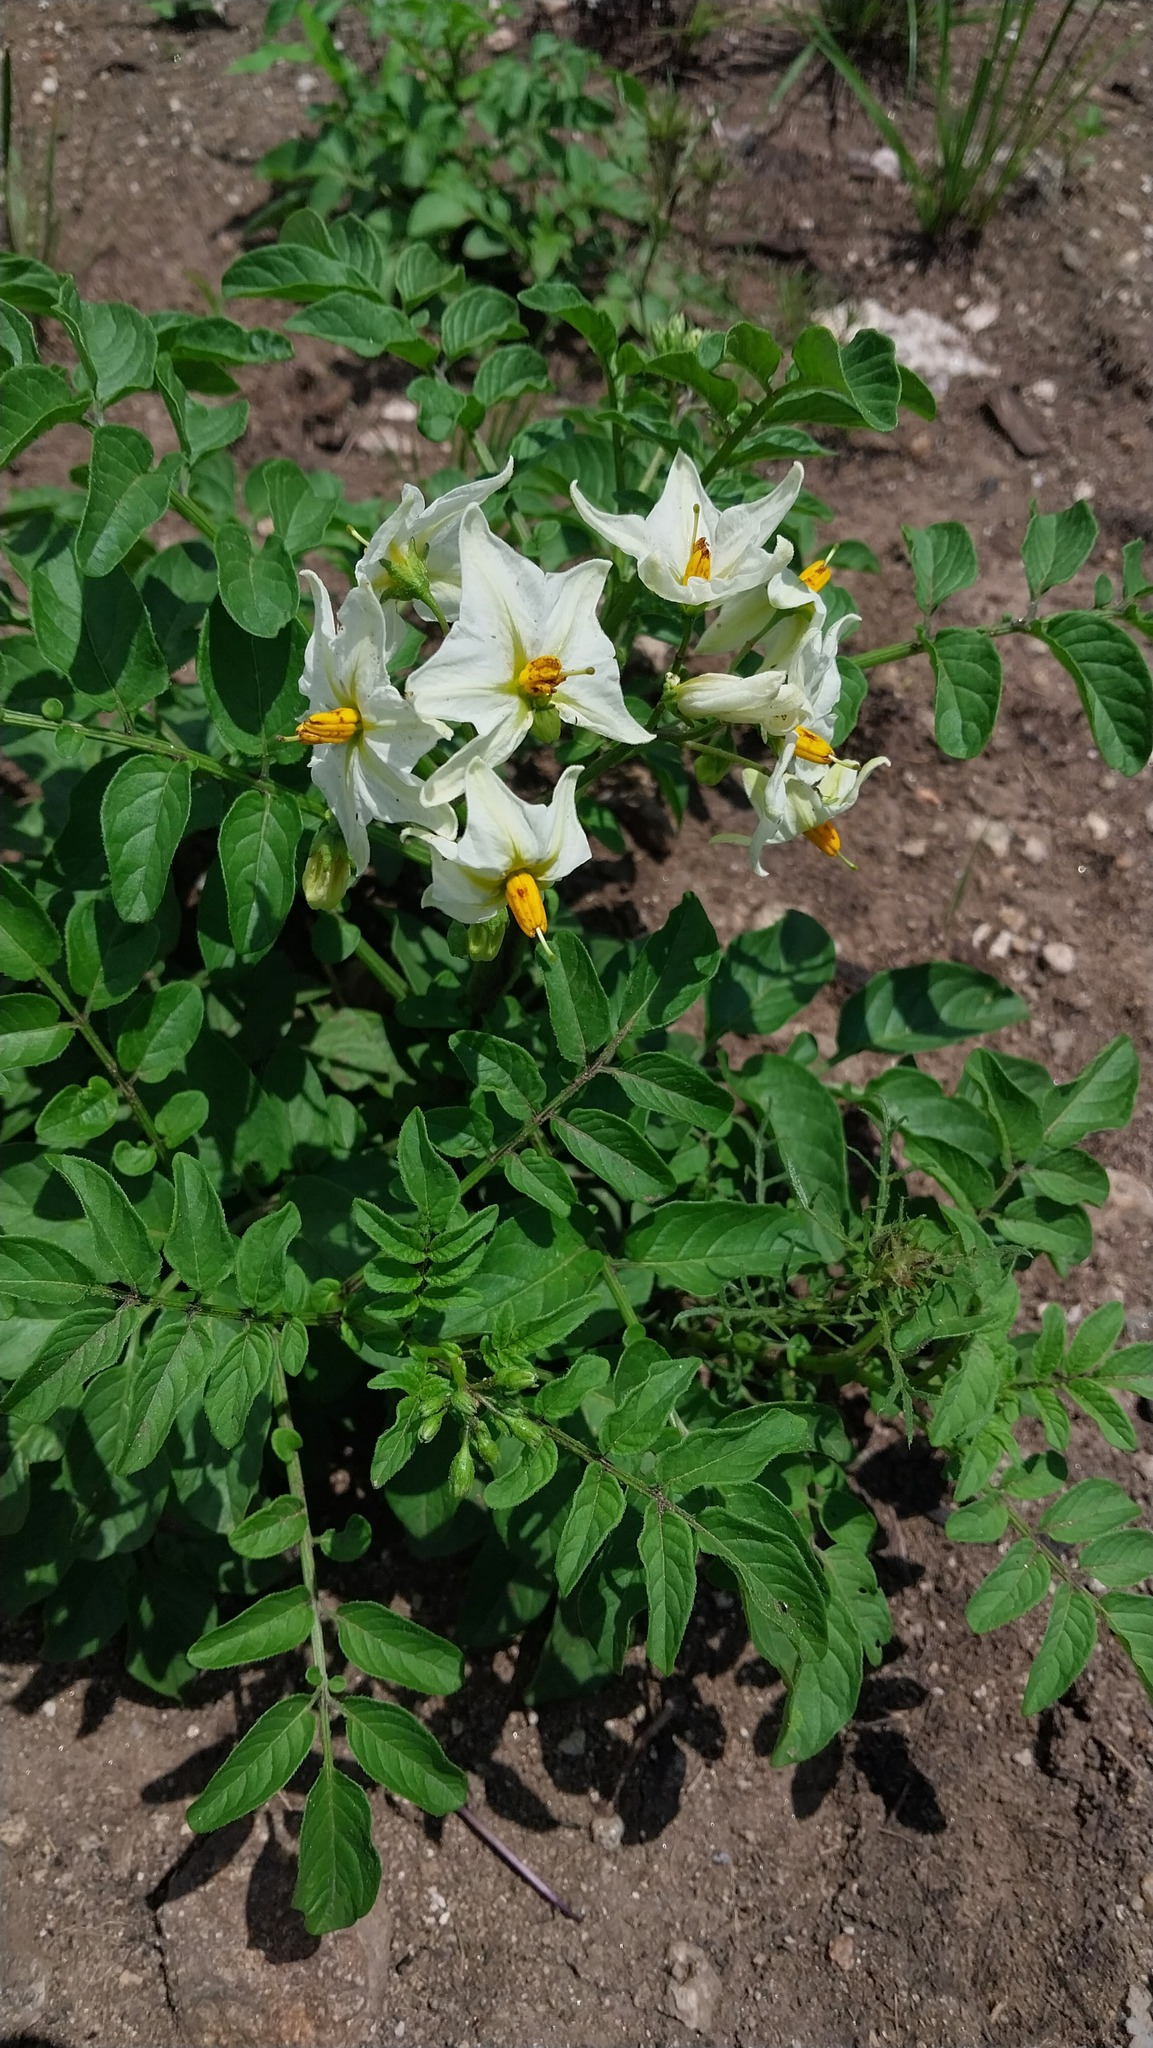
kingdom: Plantae
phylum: Tracheophyta
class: Magnoliopsida
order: Solanales
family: Solanaceae
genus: Solanum
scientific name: Solanum chacoense
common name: Chaco potato
